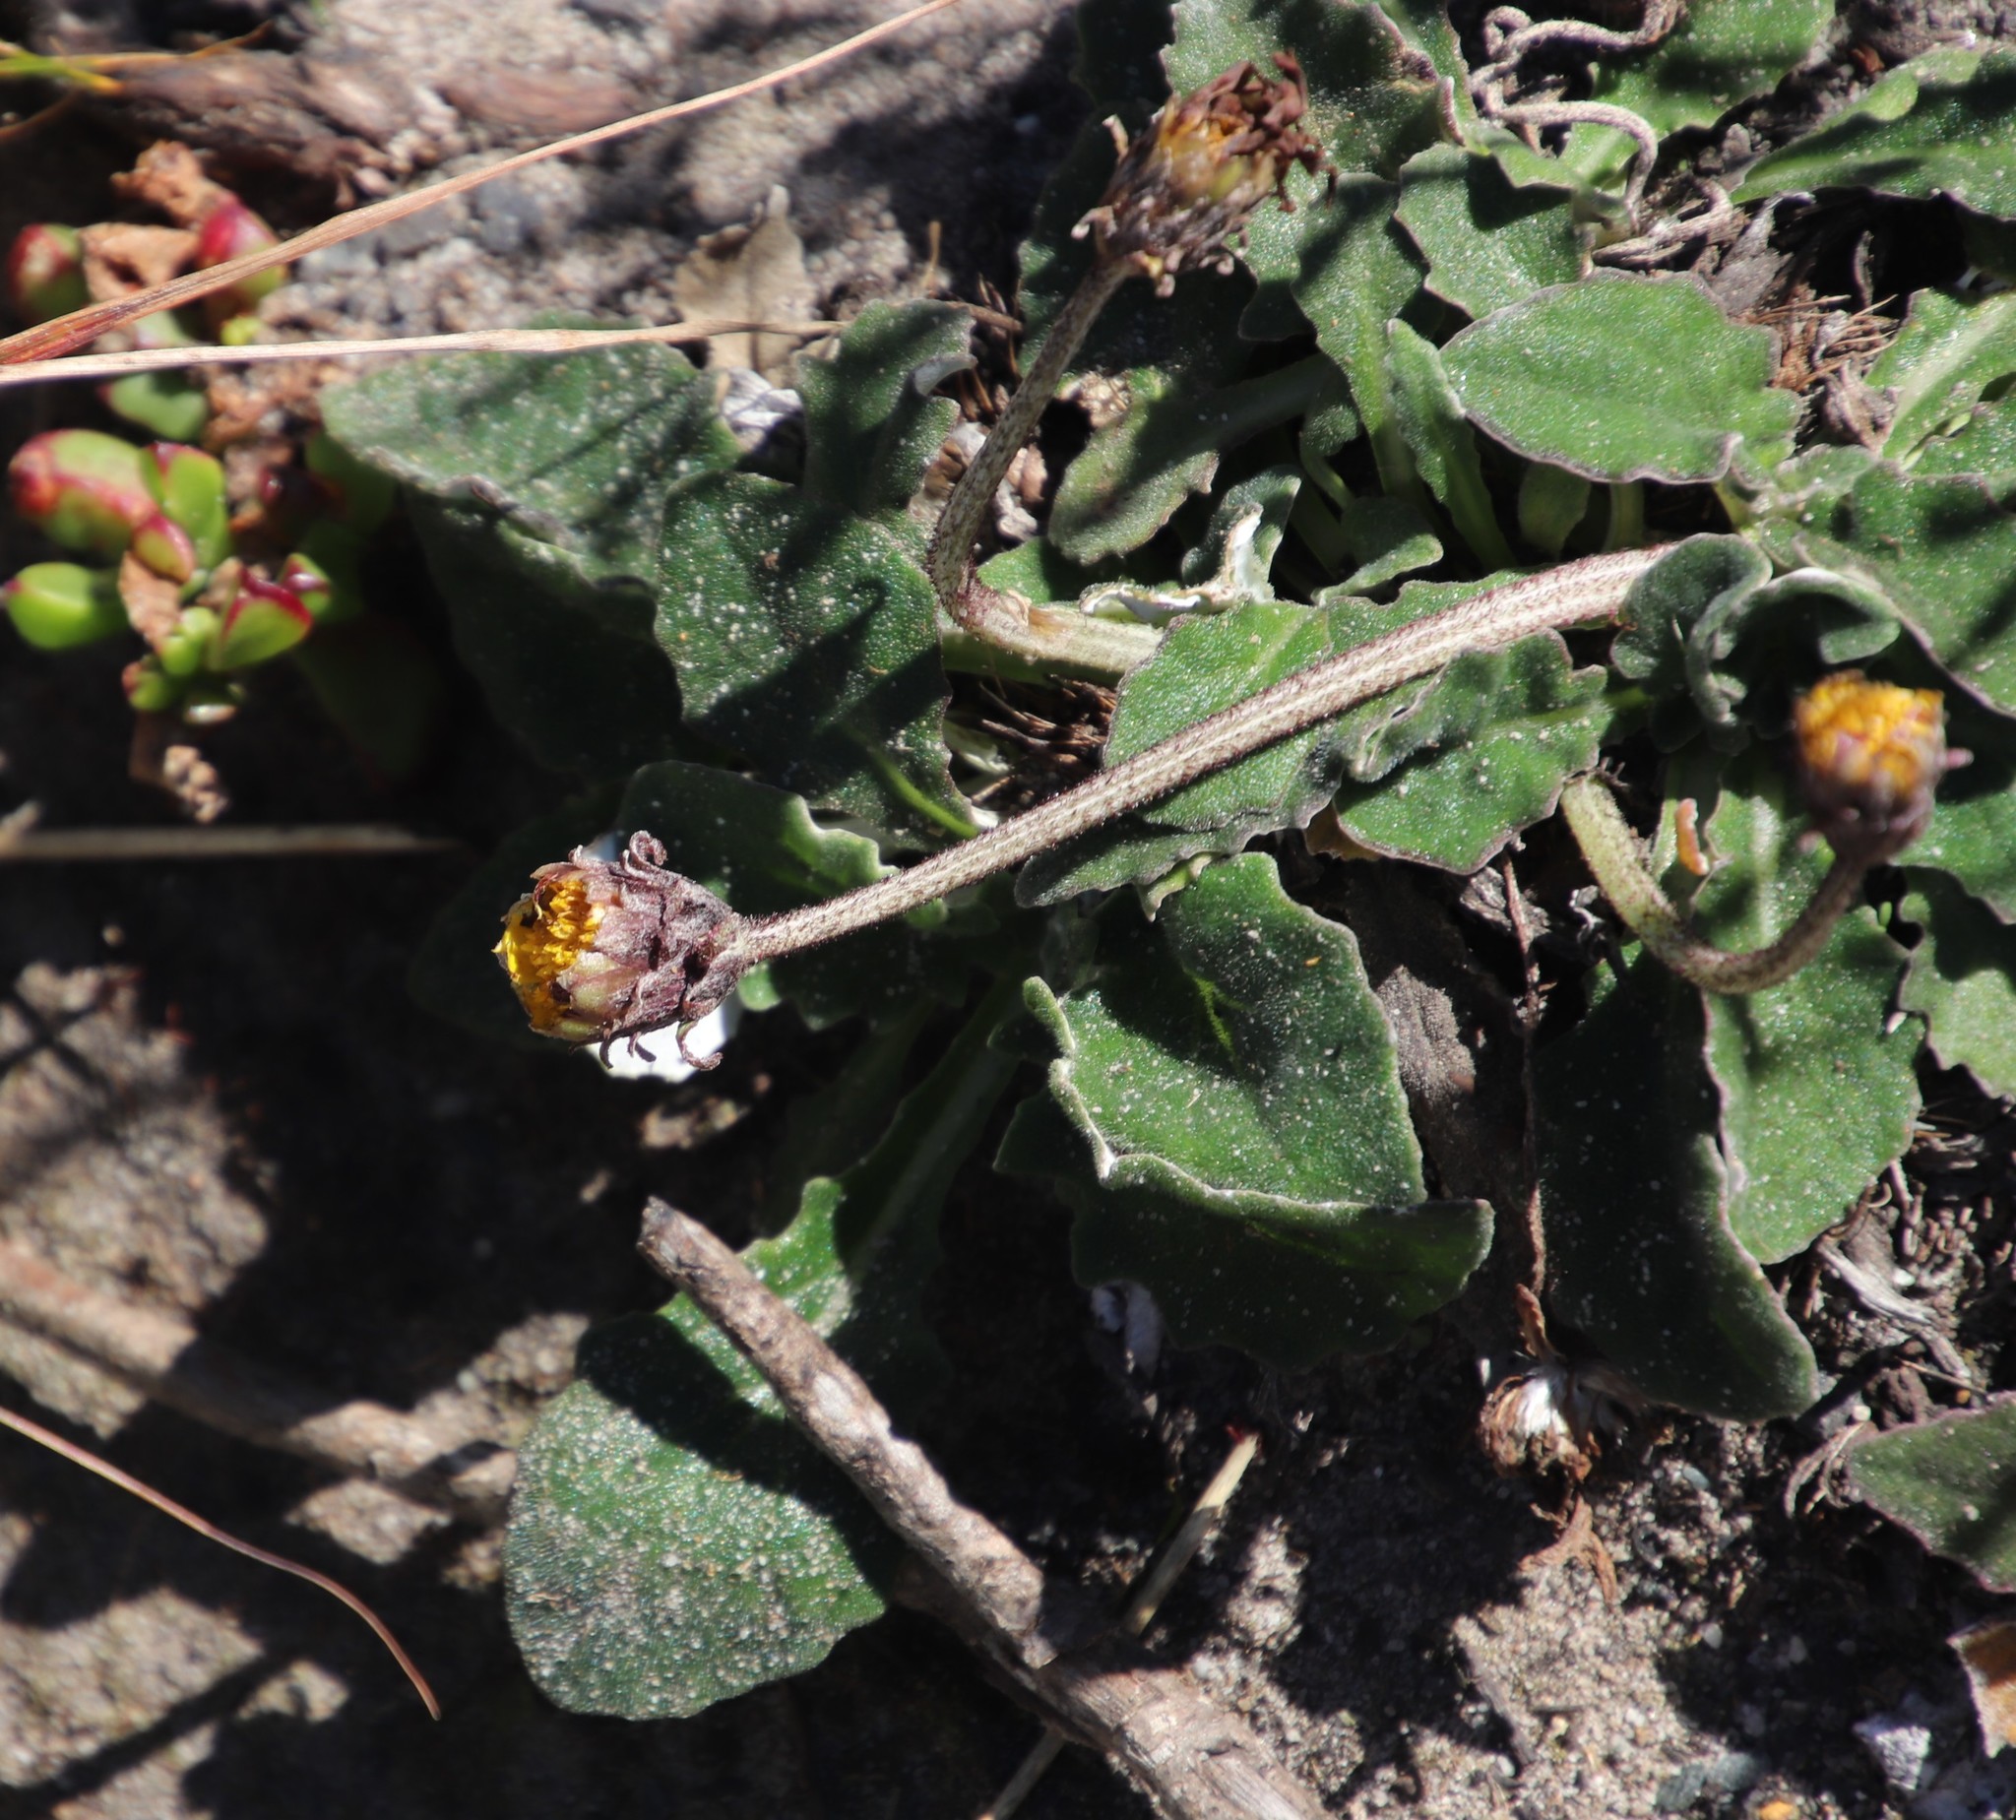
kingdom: Plantae
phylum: Tracheophyta
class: Magnoliopsida
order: Asterales
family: Asteraceae
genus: Haplocarpha
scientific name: Haplocarpha lanata
